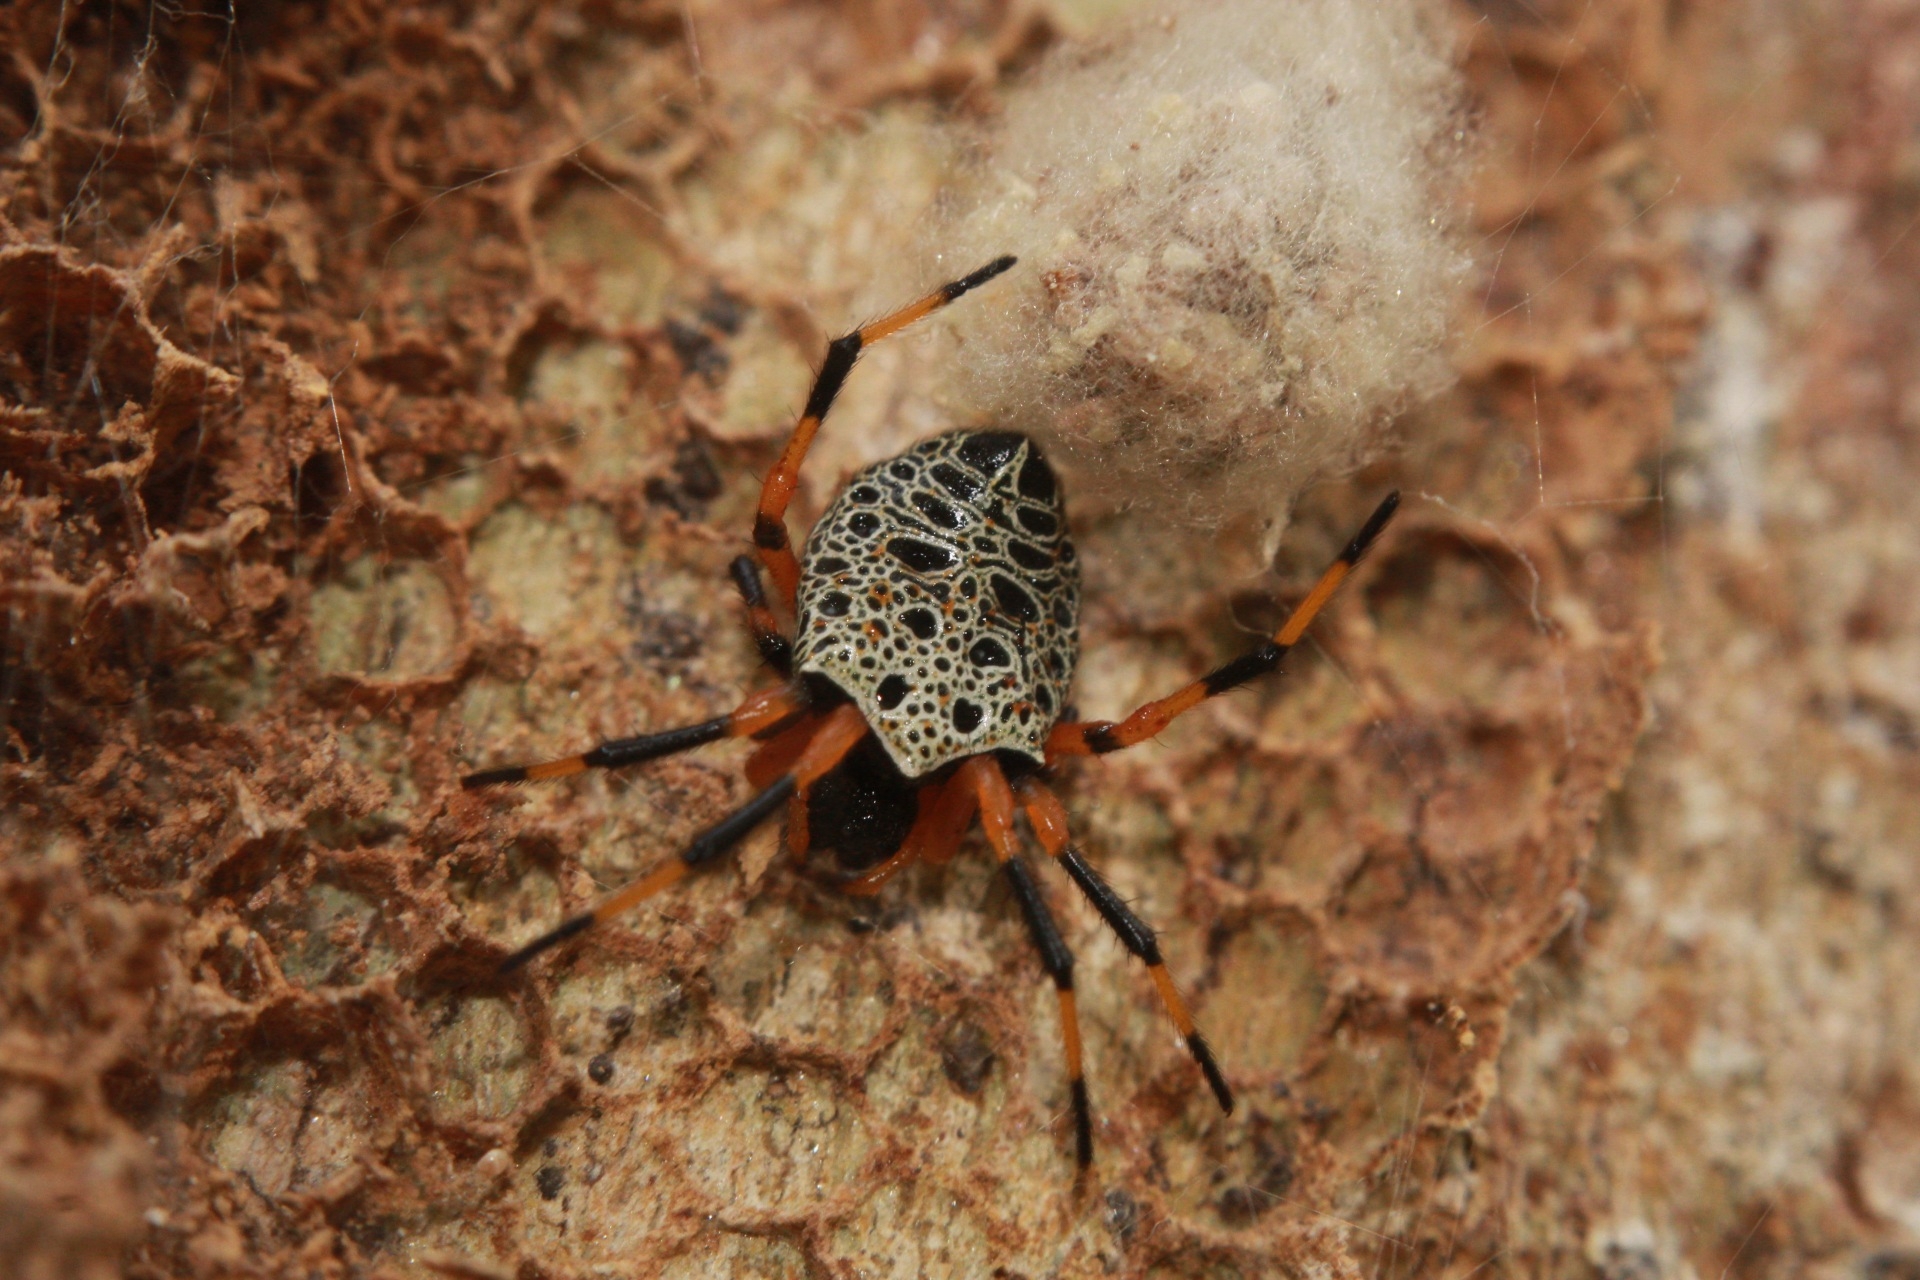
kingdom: Animalia
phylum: Arthropoda
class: Arachnida
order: Araneae
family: Araneidae
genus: Alpaida
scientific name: Alpaida tabula
